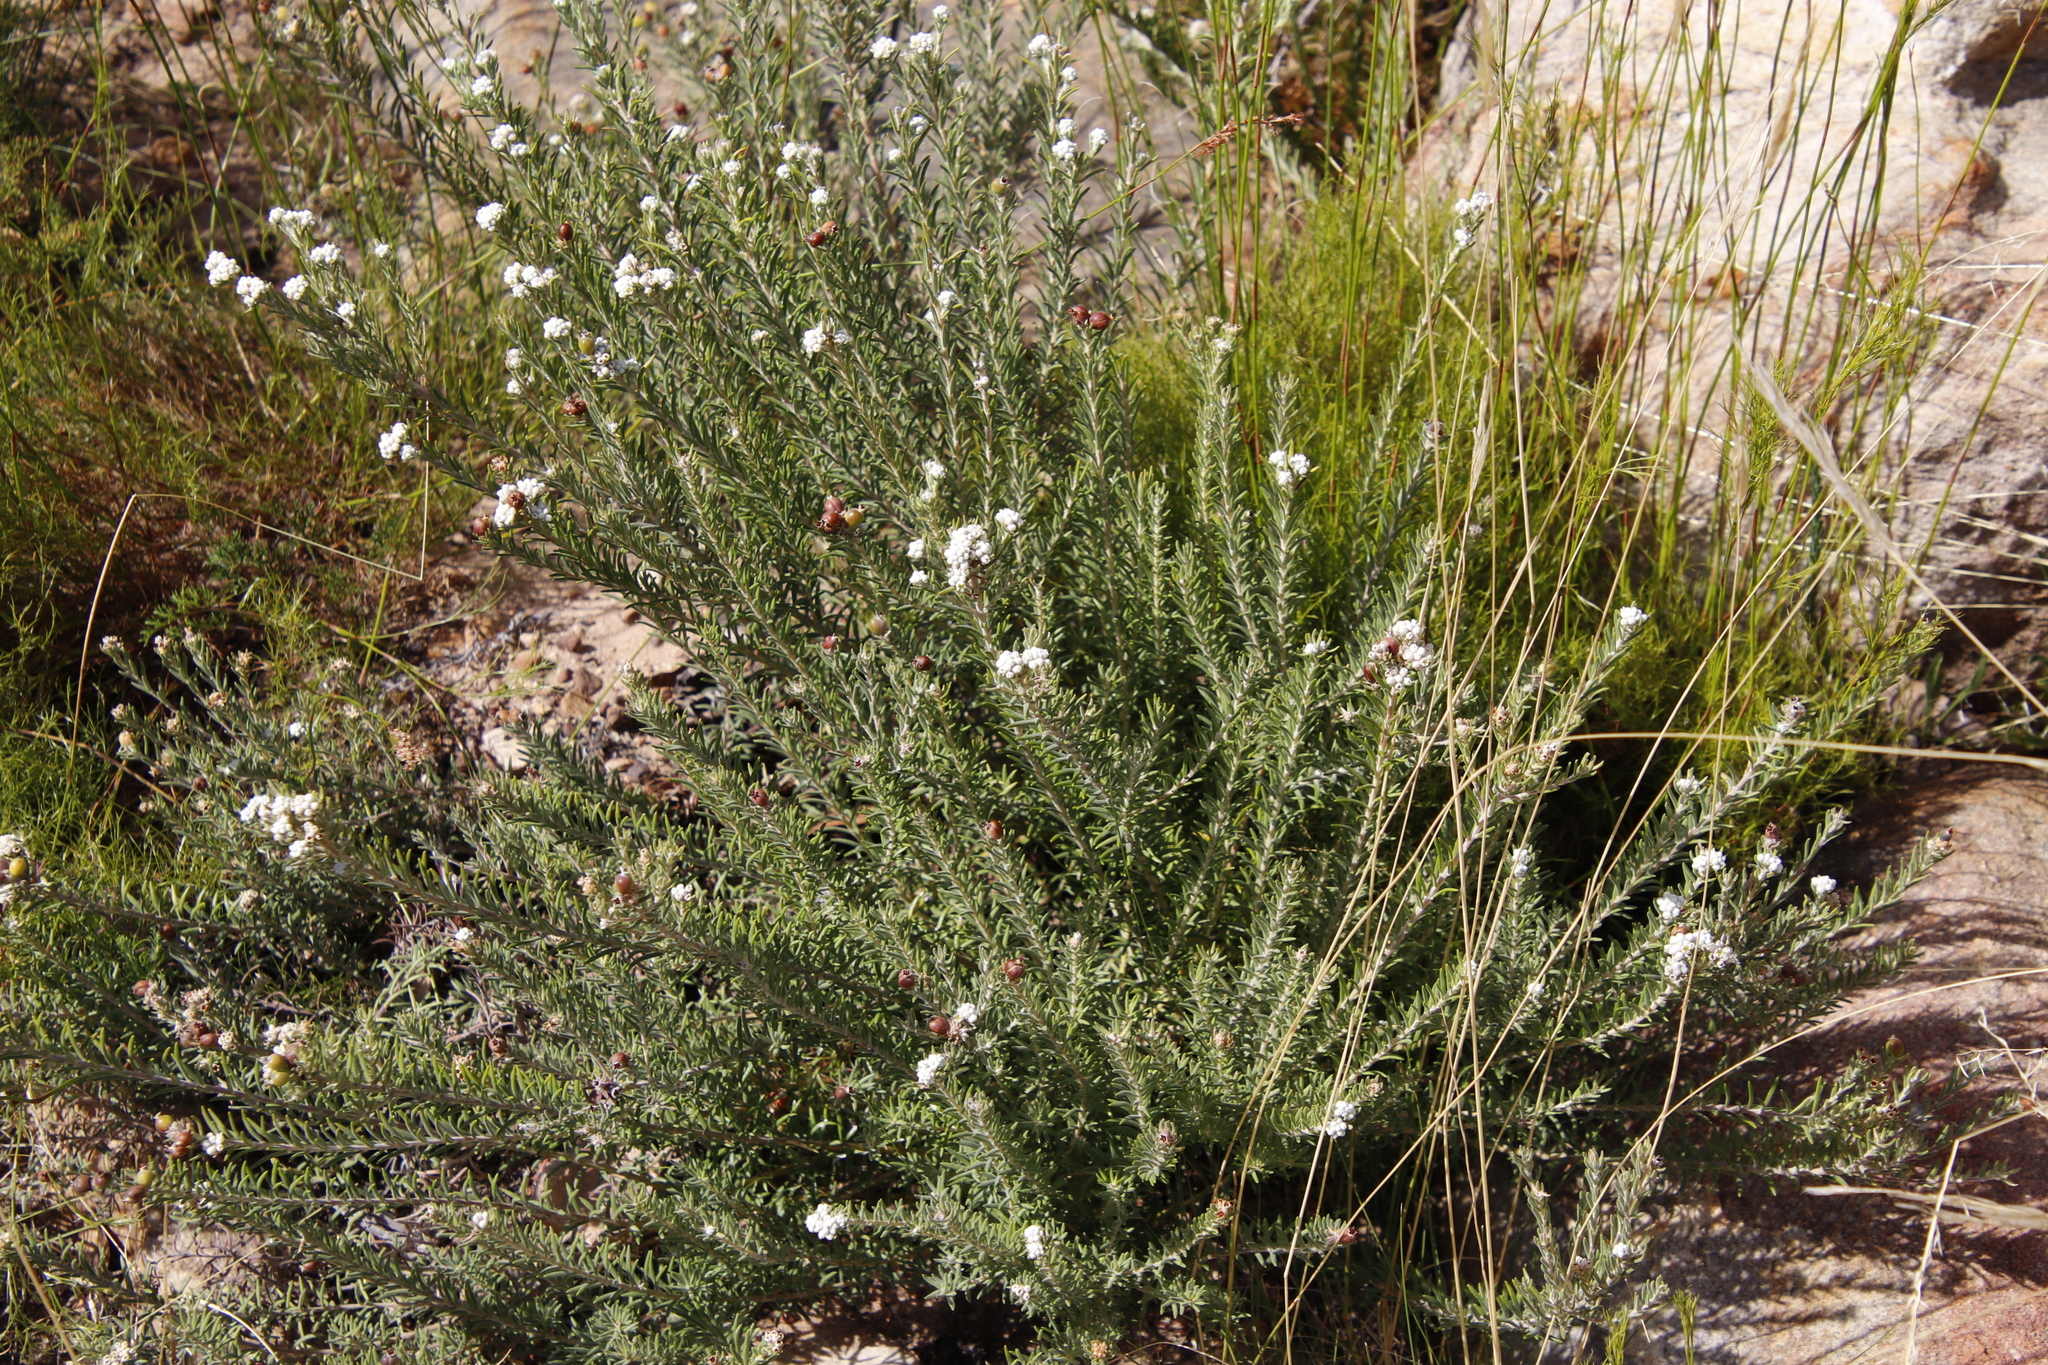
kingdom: Plantae
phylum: Tracheophyta
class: Magnoliopsida
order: Rosales
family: Rhamnaceae
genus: Phylica
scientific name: Phylica imberbis
